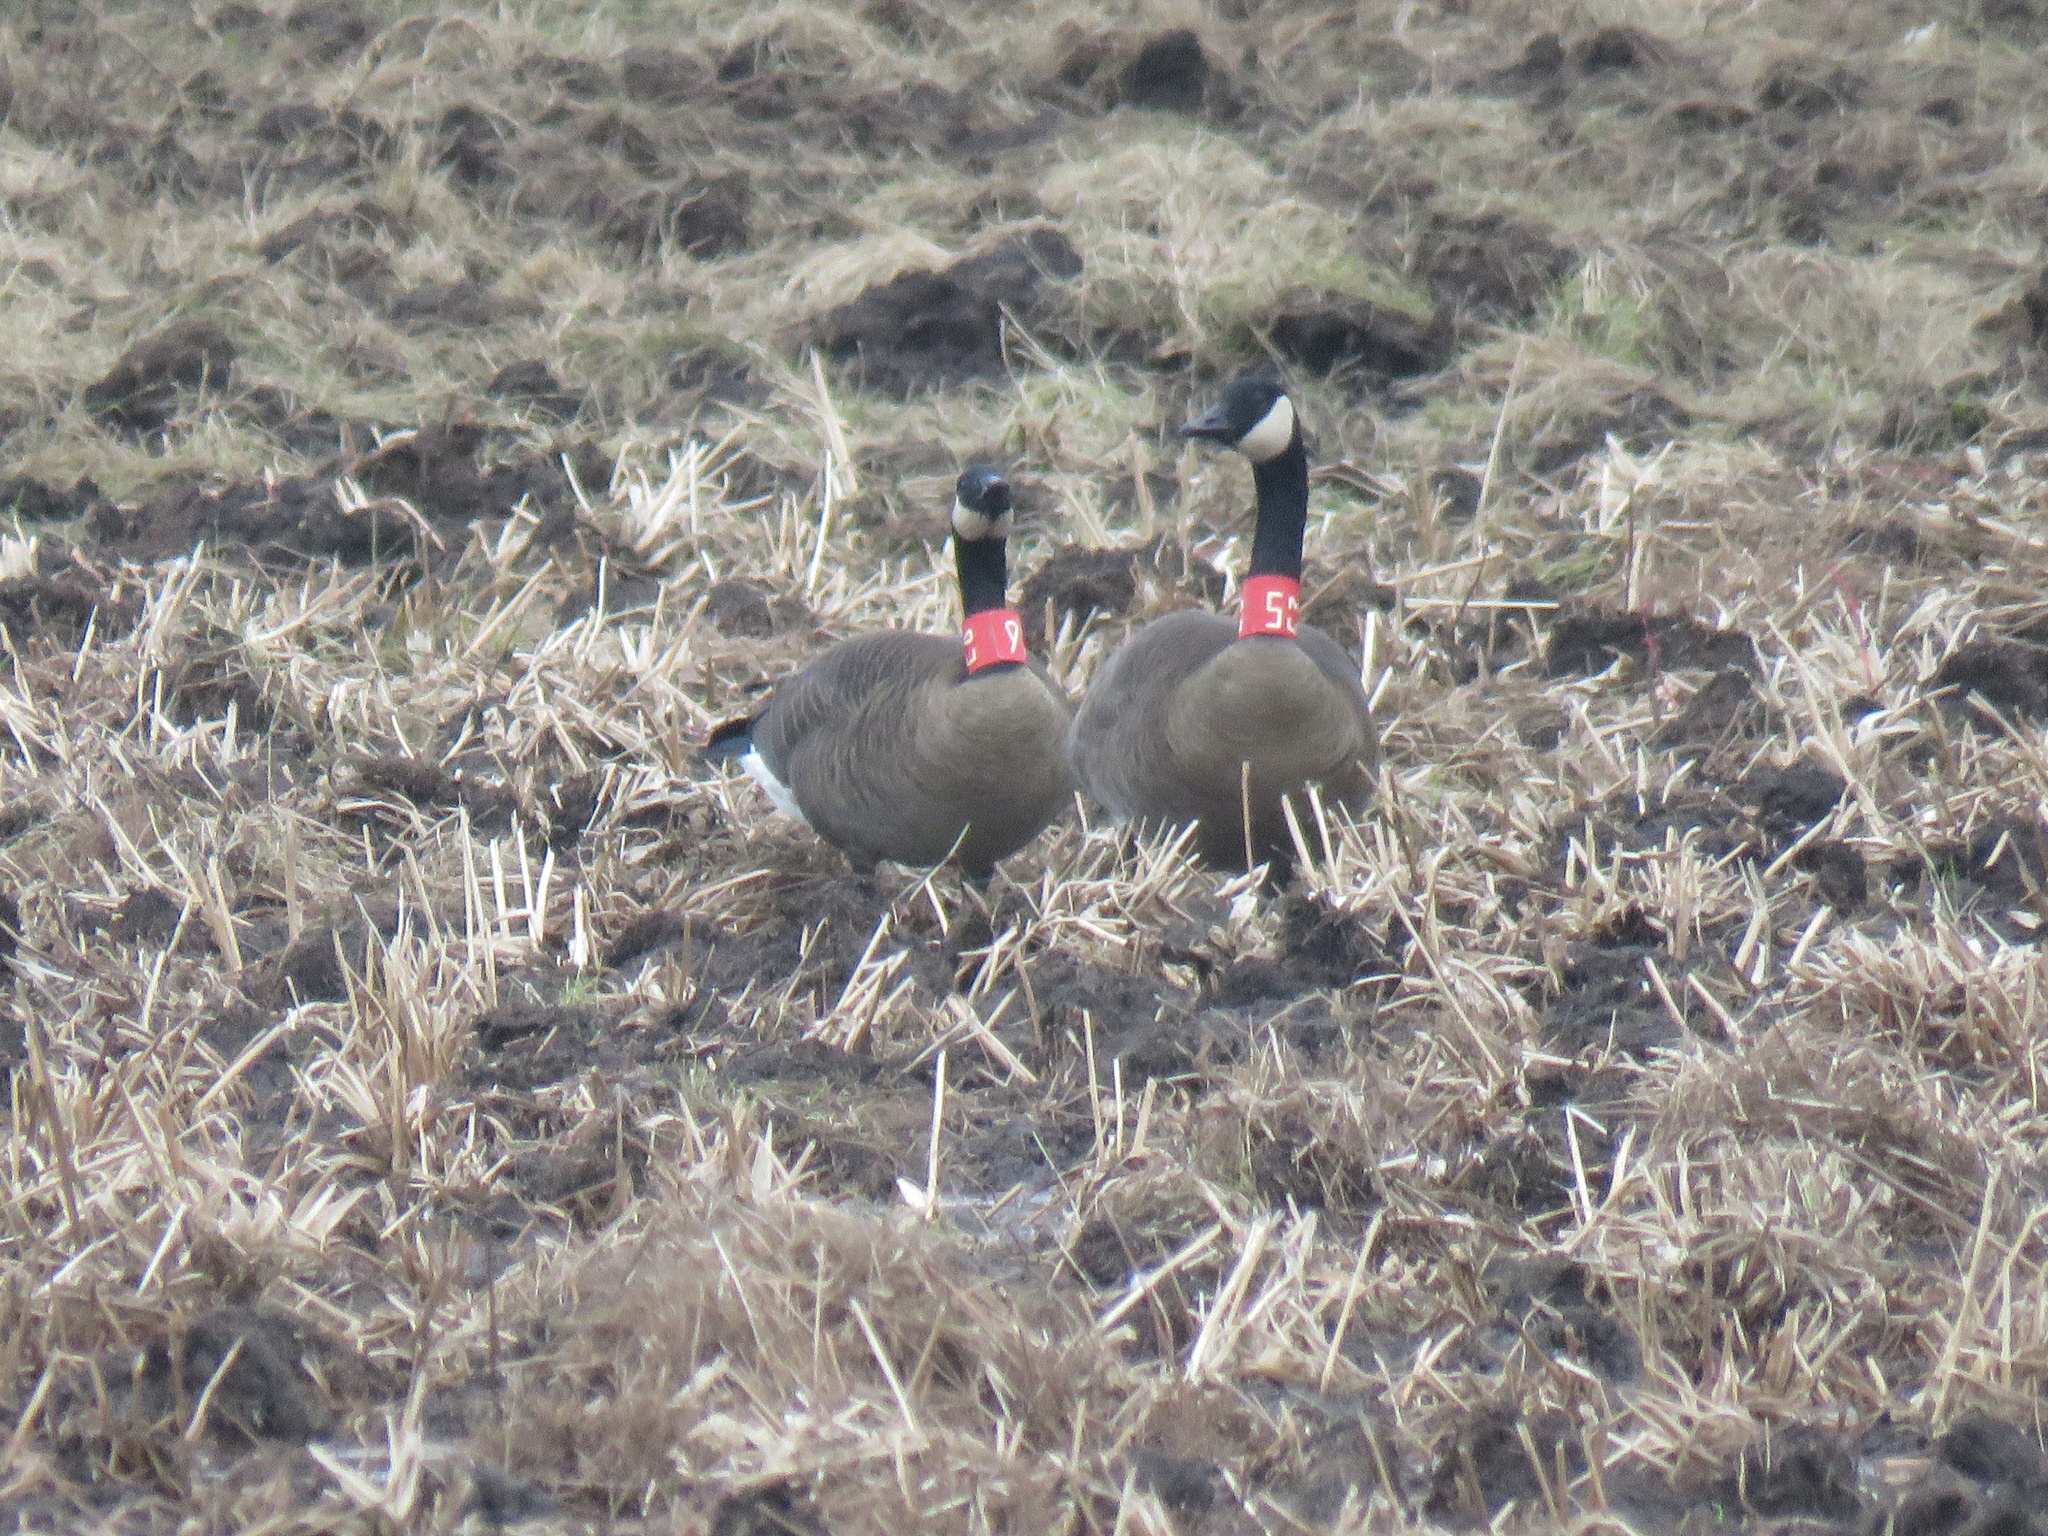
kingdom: Animalia
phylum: Chordata
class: Aves
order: Anseriformes
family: Anatidae
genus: Branta
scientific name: Branta canadensis
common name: Canada goose
